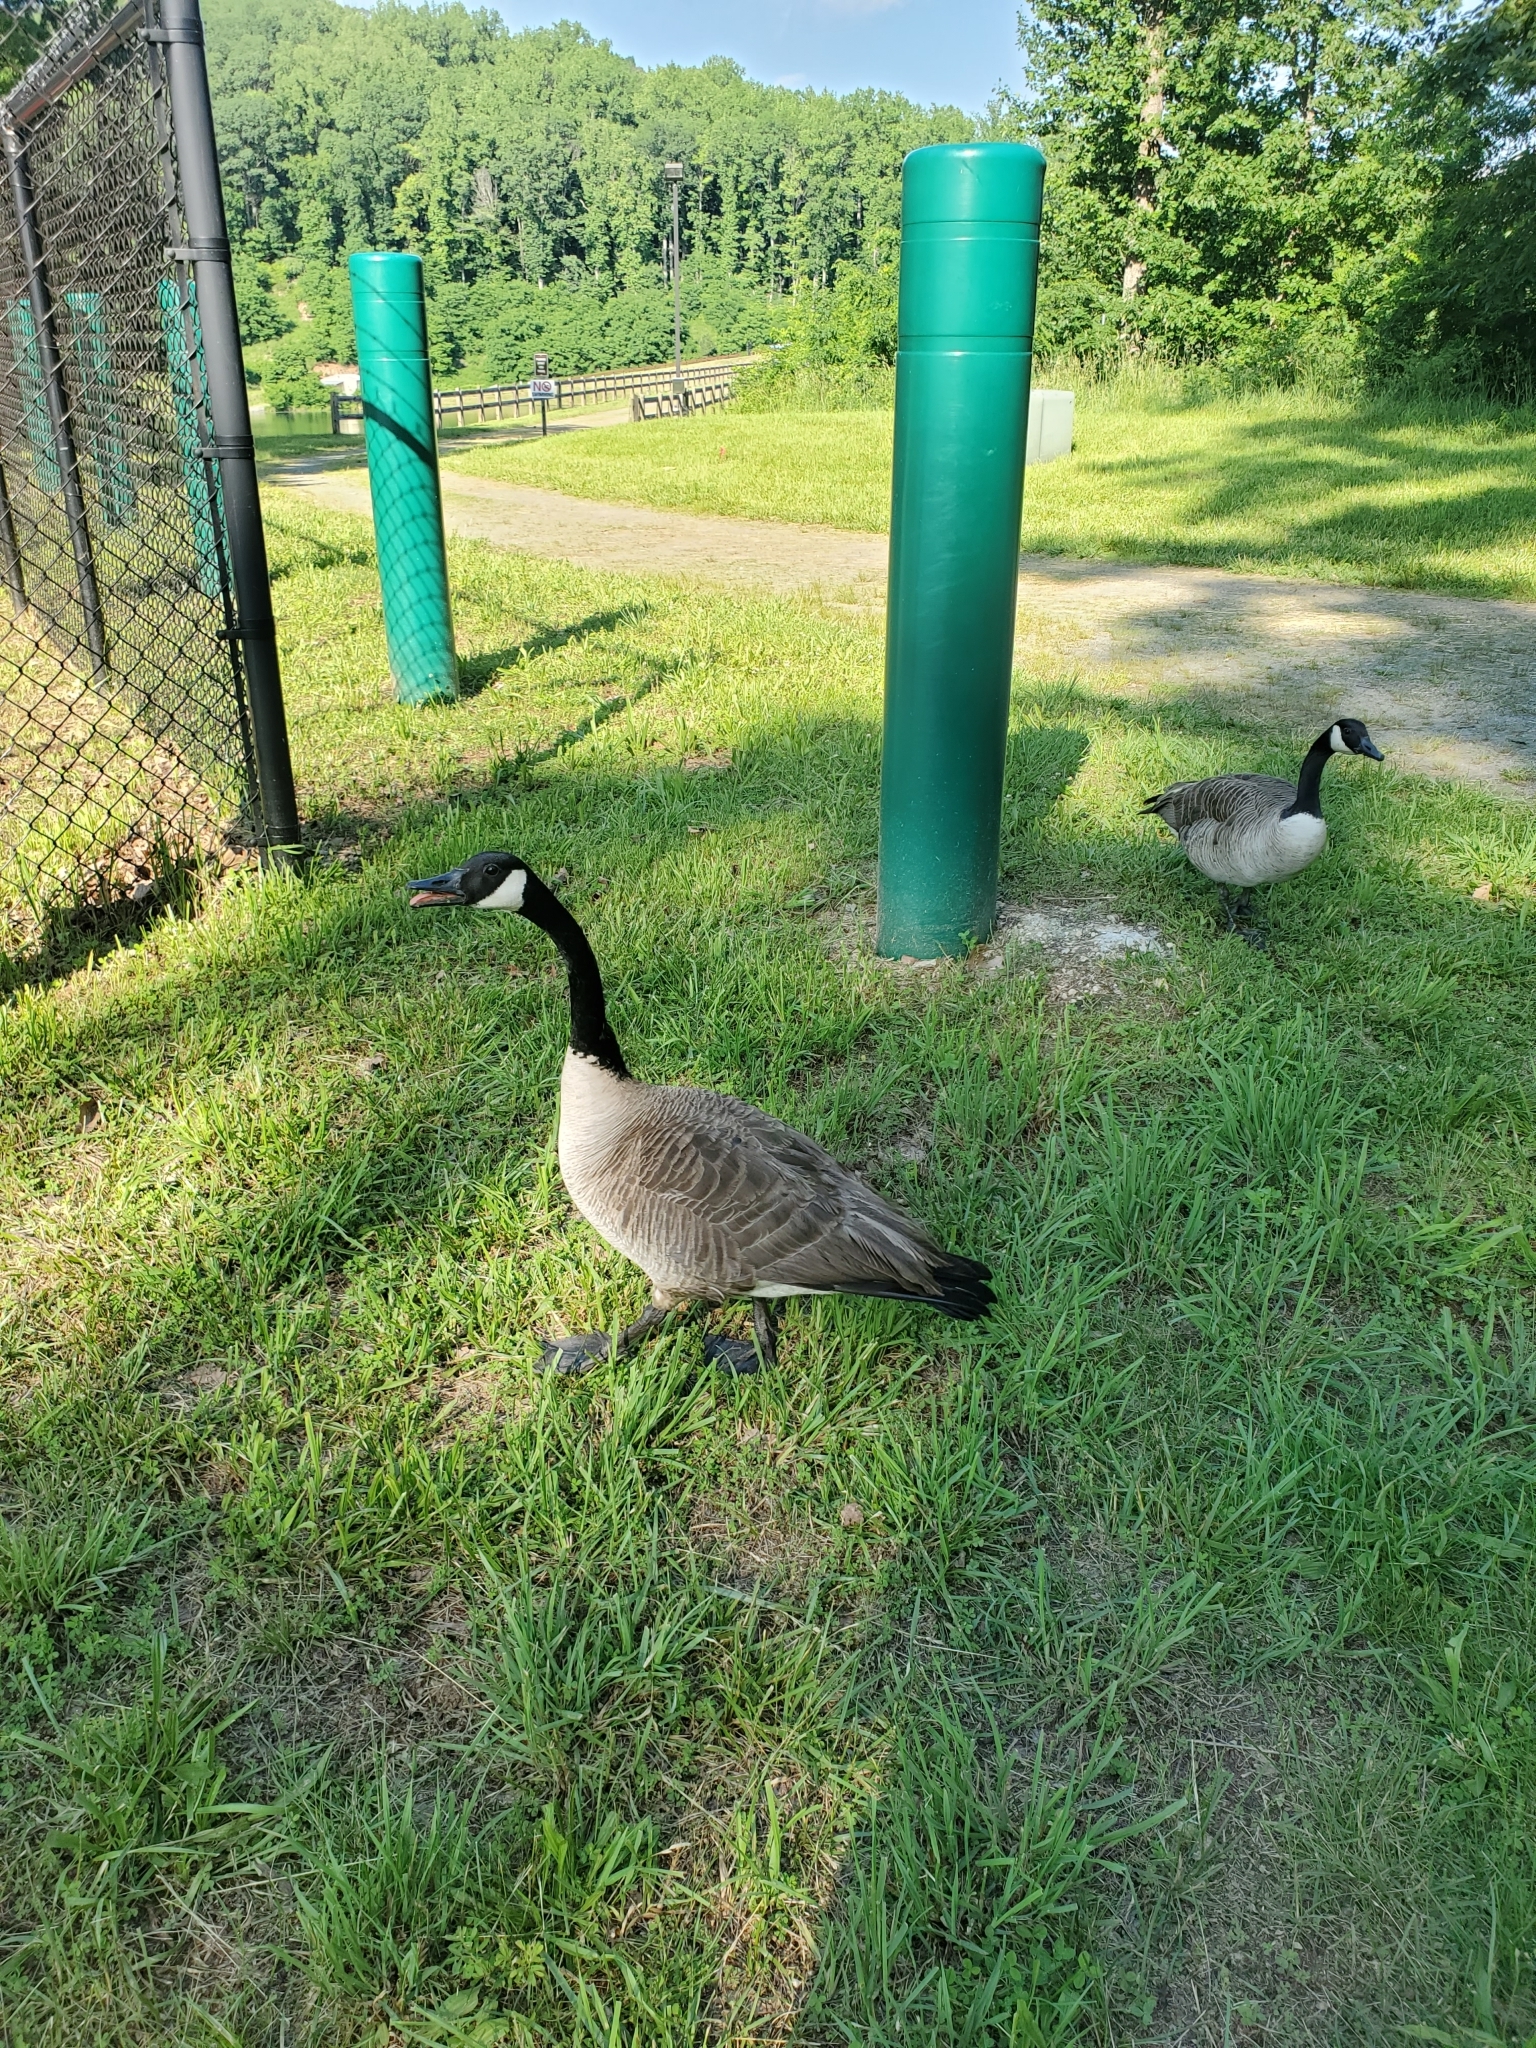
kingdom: Animalia
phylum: Chordata
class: Aves
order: Anseriformes
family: Anatidae
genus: Branta
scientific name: Branta canadensis
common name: Canada goose
